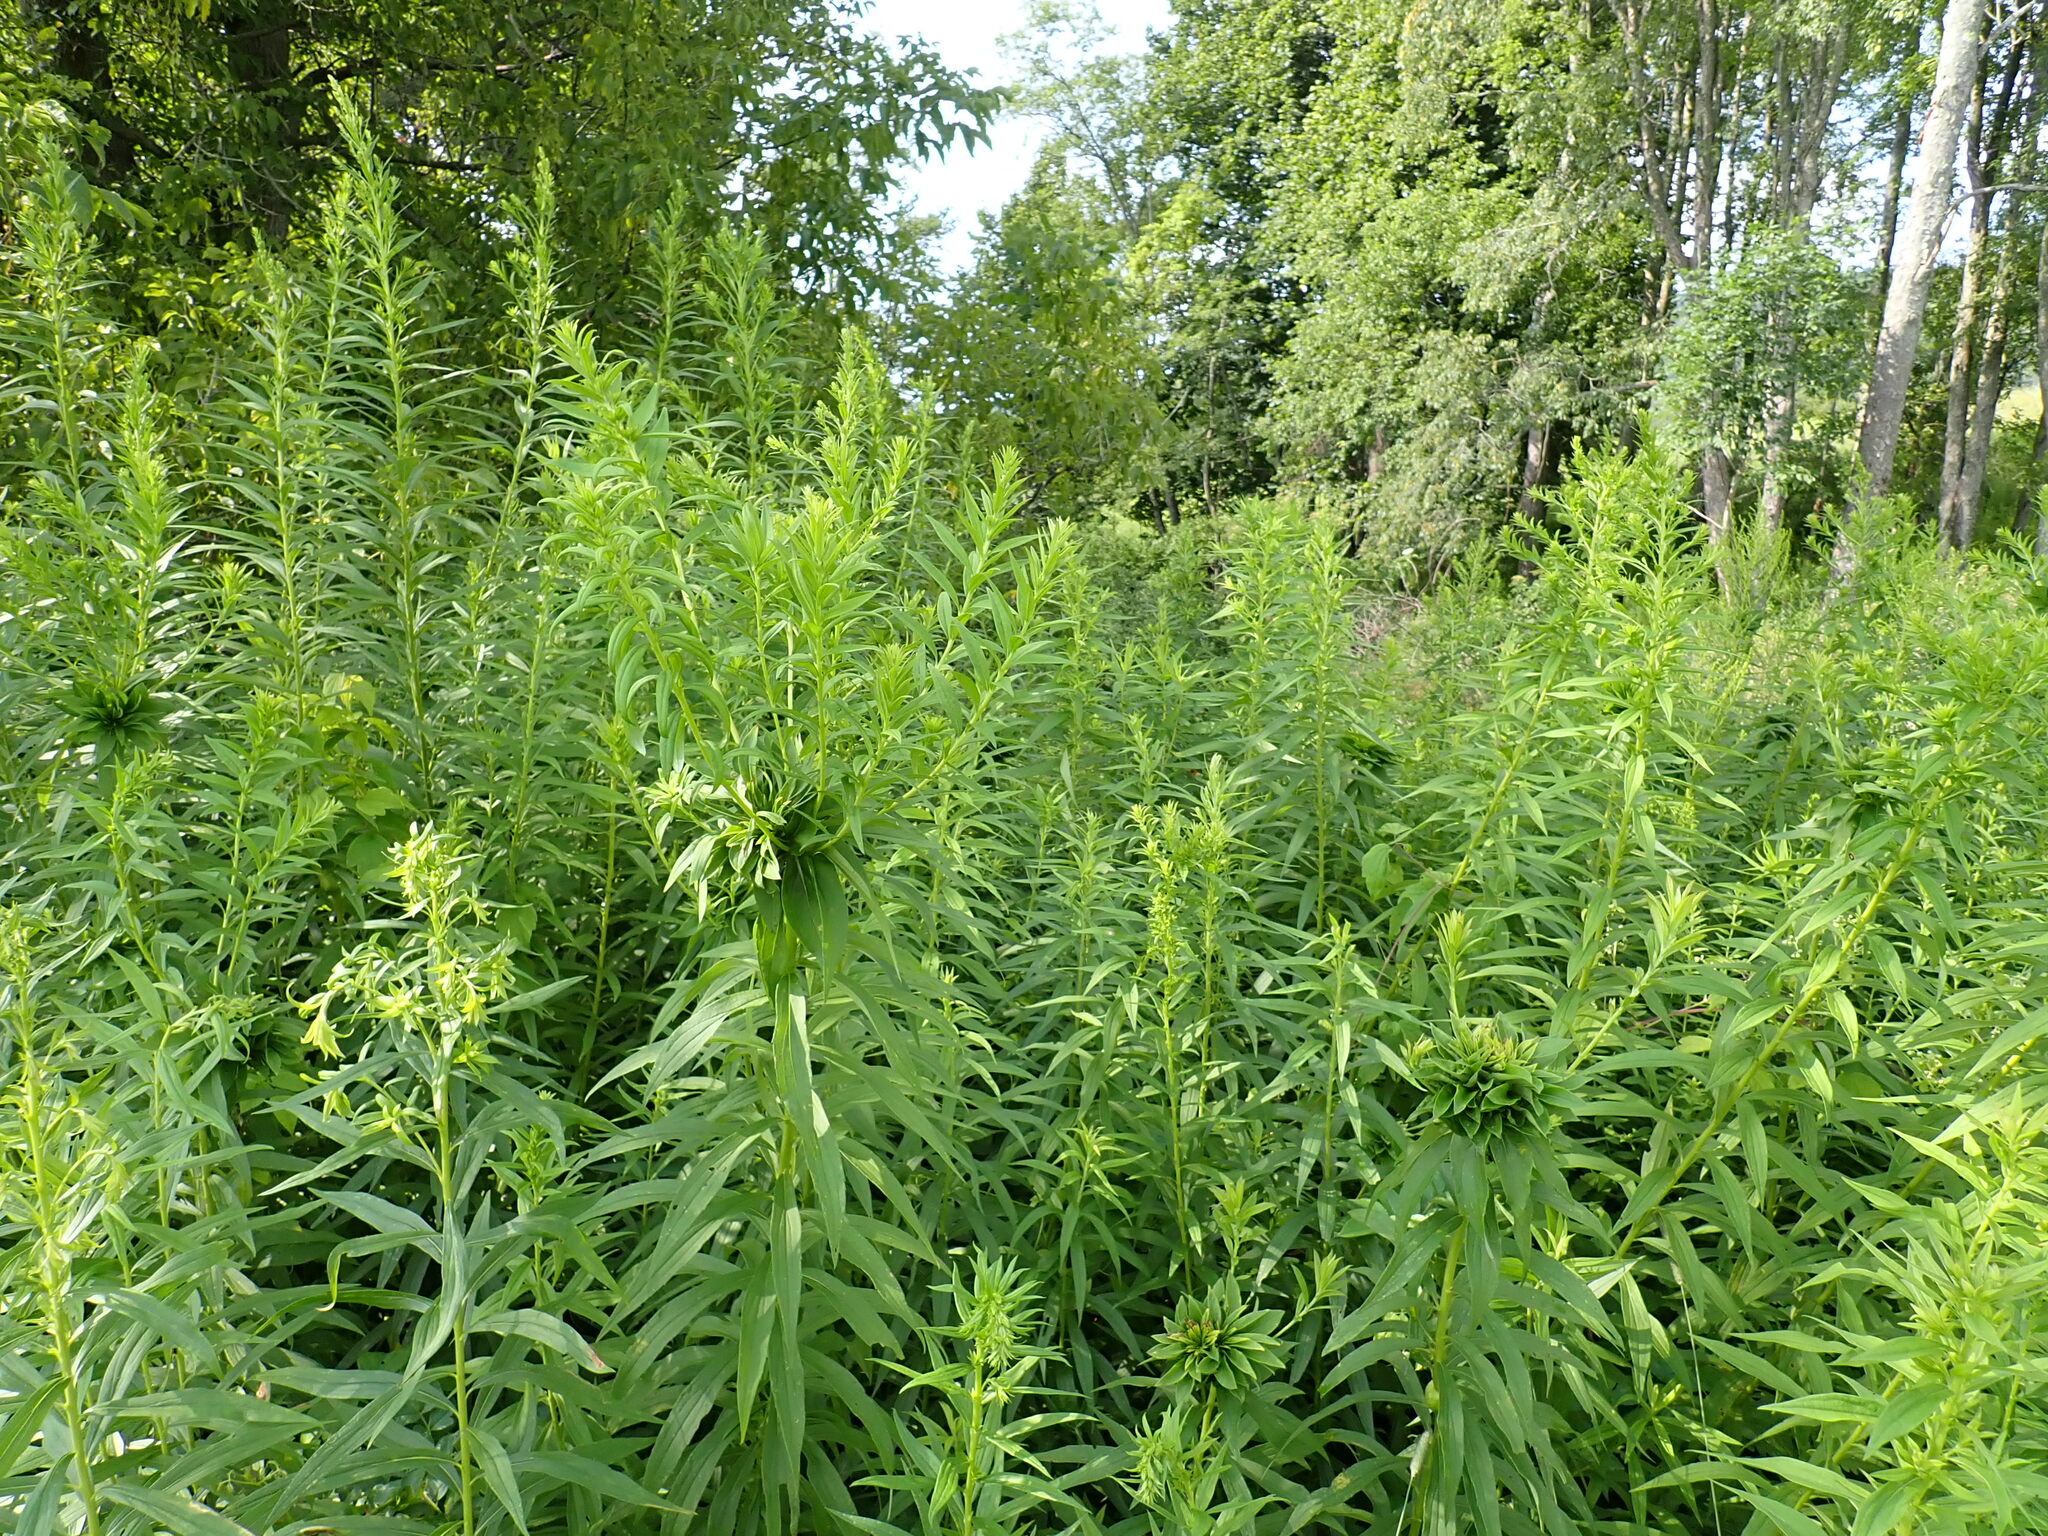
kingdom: Animalia
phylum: Arthropoda
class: Insecta
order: Diptera
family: Cecidomyiidae
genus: Rhopalomyia
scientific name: Rhopalomyia solidaginis
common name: Goldenrod bunch gall midge
